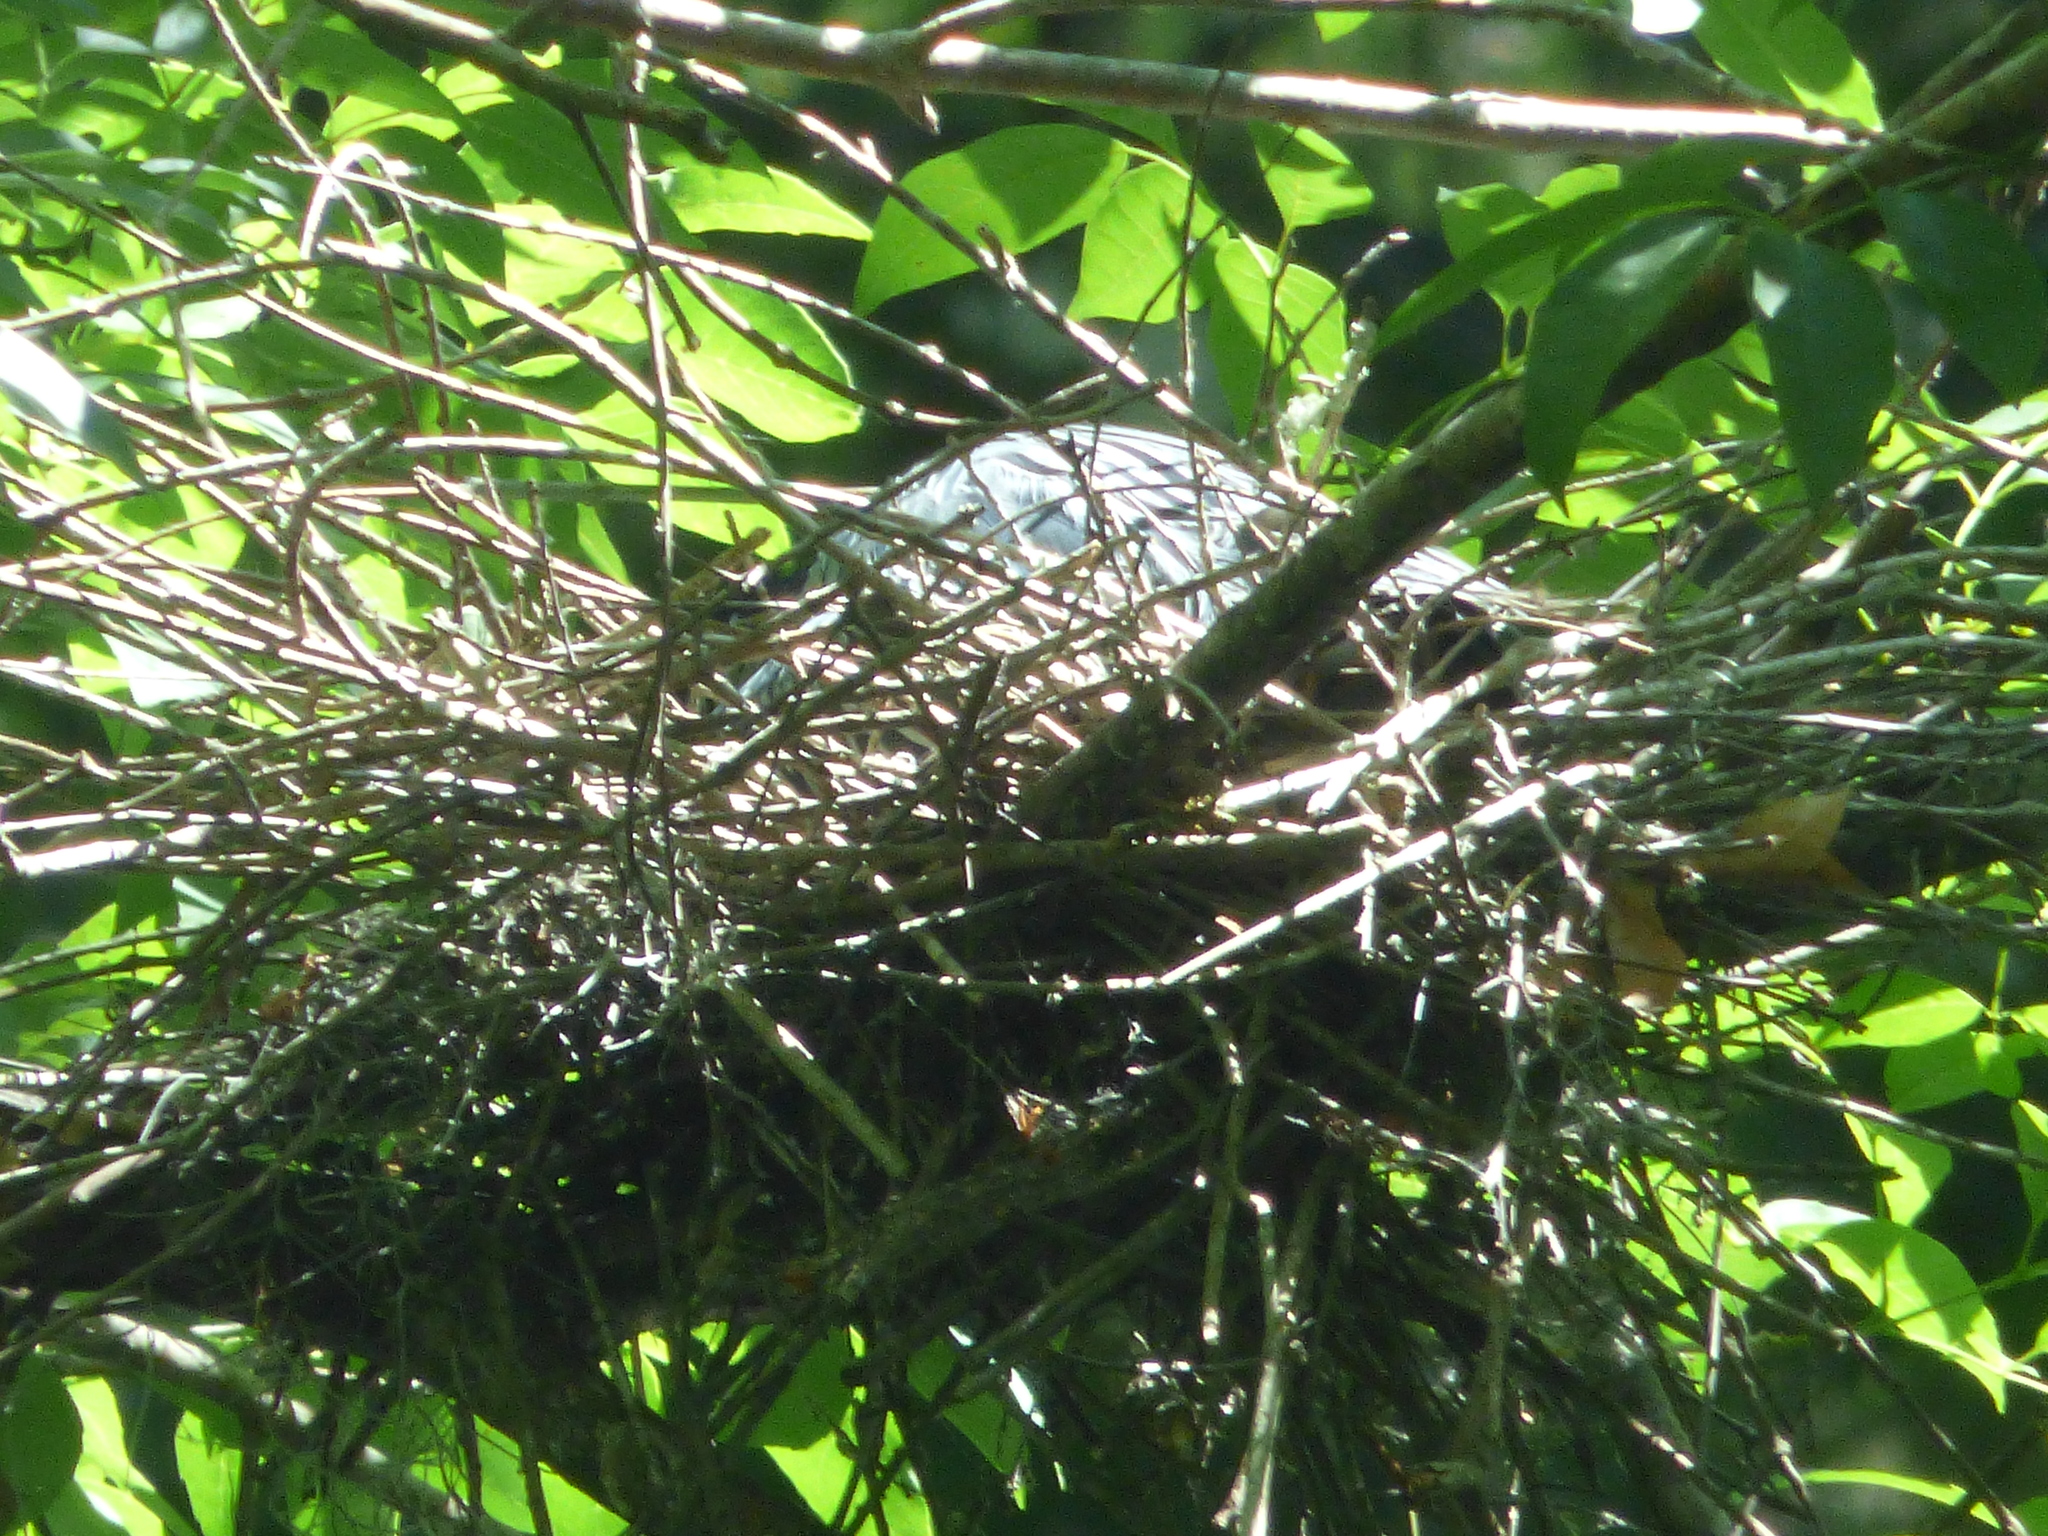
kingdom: Animalia
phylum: Chordata
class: Aves
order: Pelecaniformes
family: Ardeidae
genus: Nyctanassa
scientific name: Nyctanassa violacea
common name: Yellow-crowned night heron
